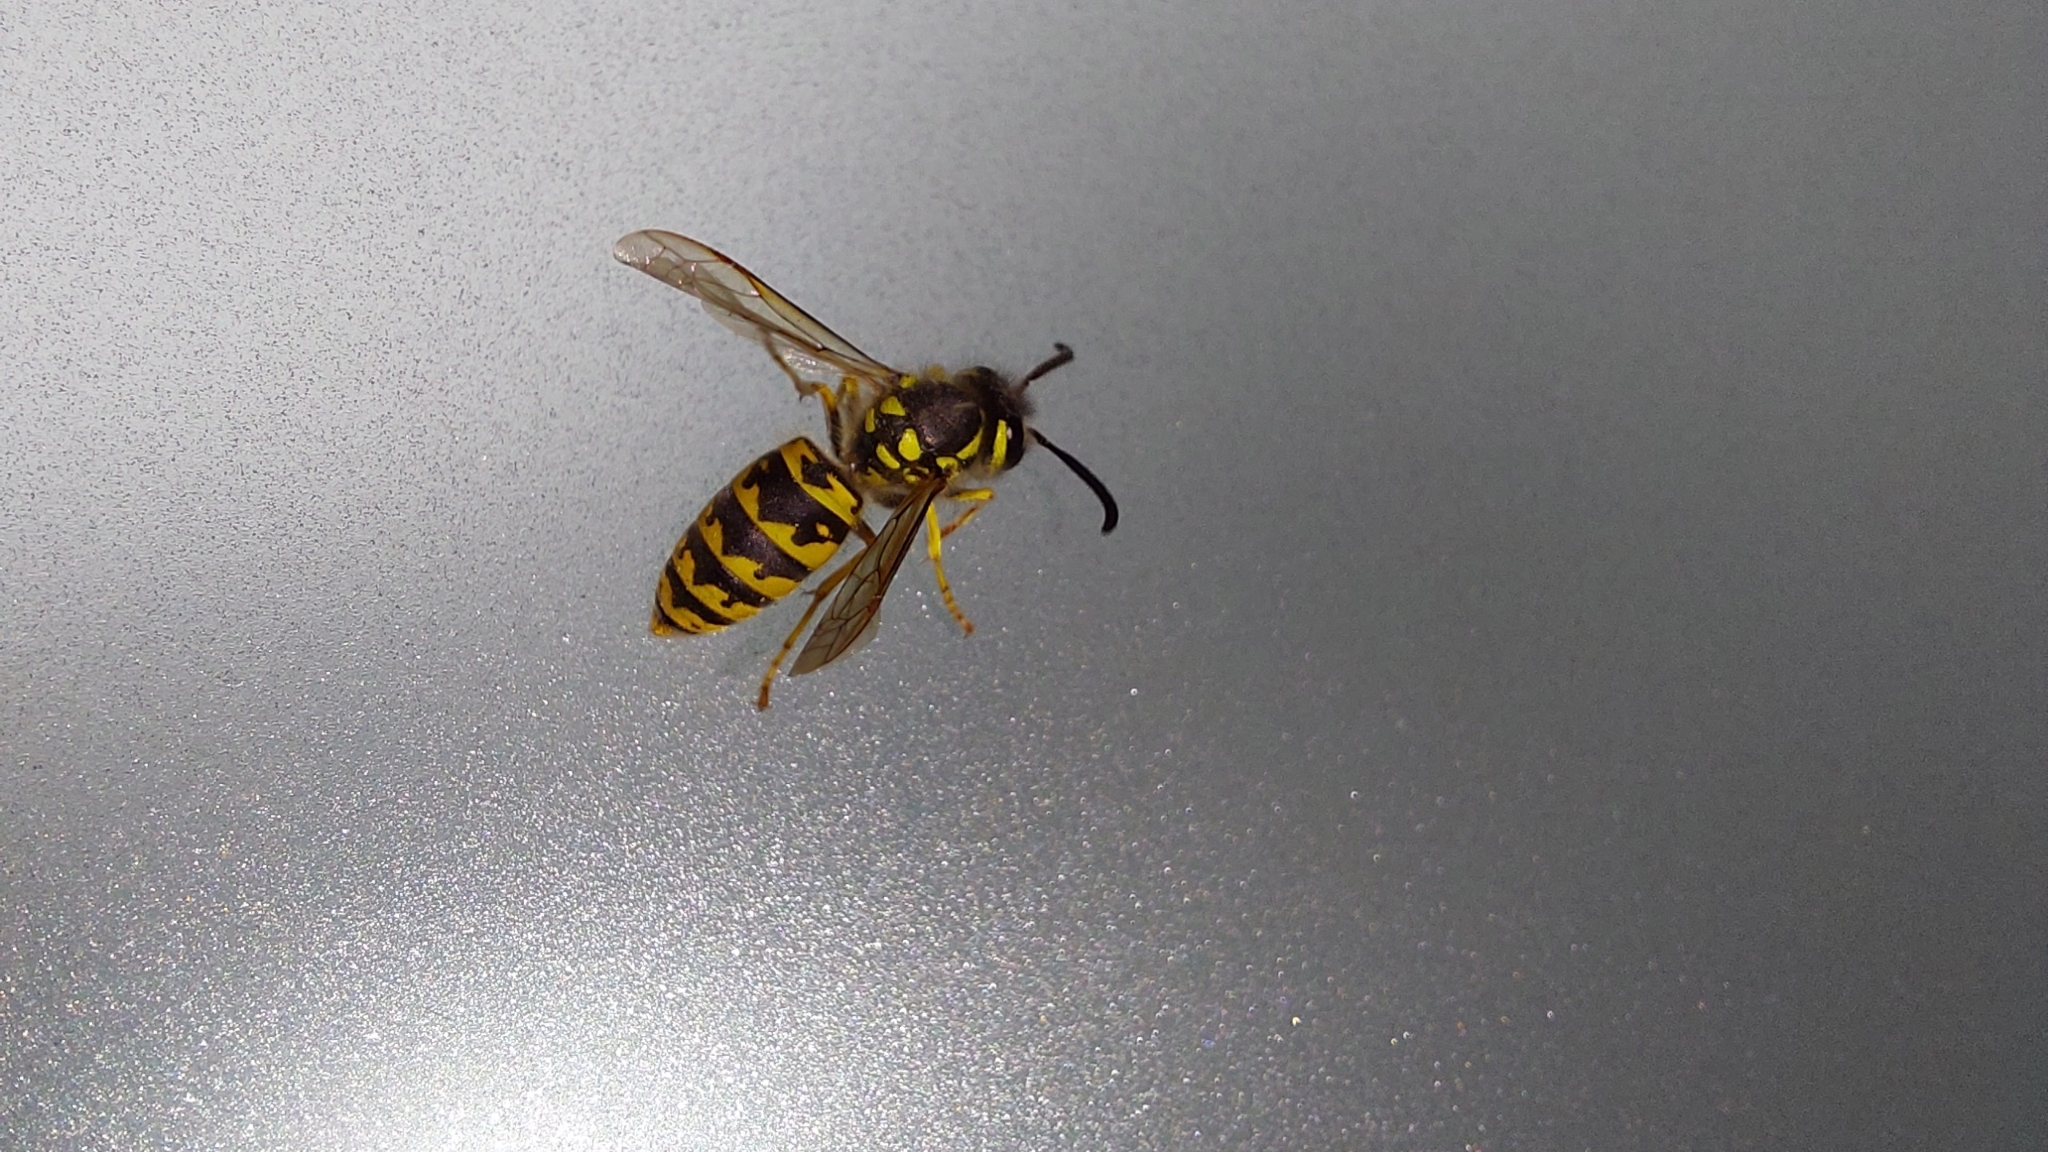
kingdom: Animalia
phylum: Arthropoda
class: Insecta
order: Hymenoptera
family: Vespidae
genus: Vespula
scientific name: Vespula germanica
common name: German wasp
